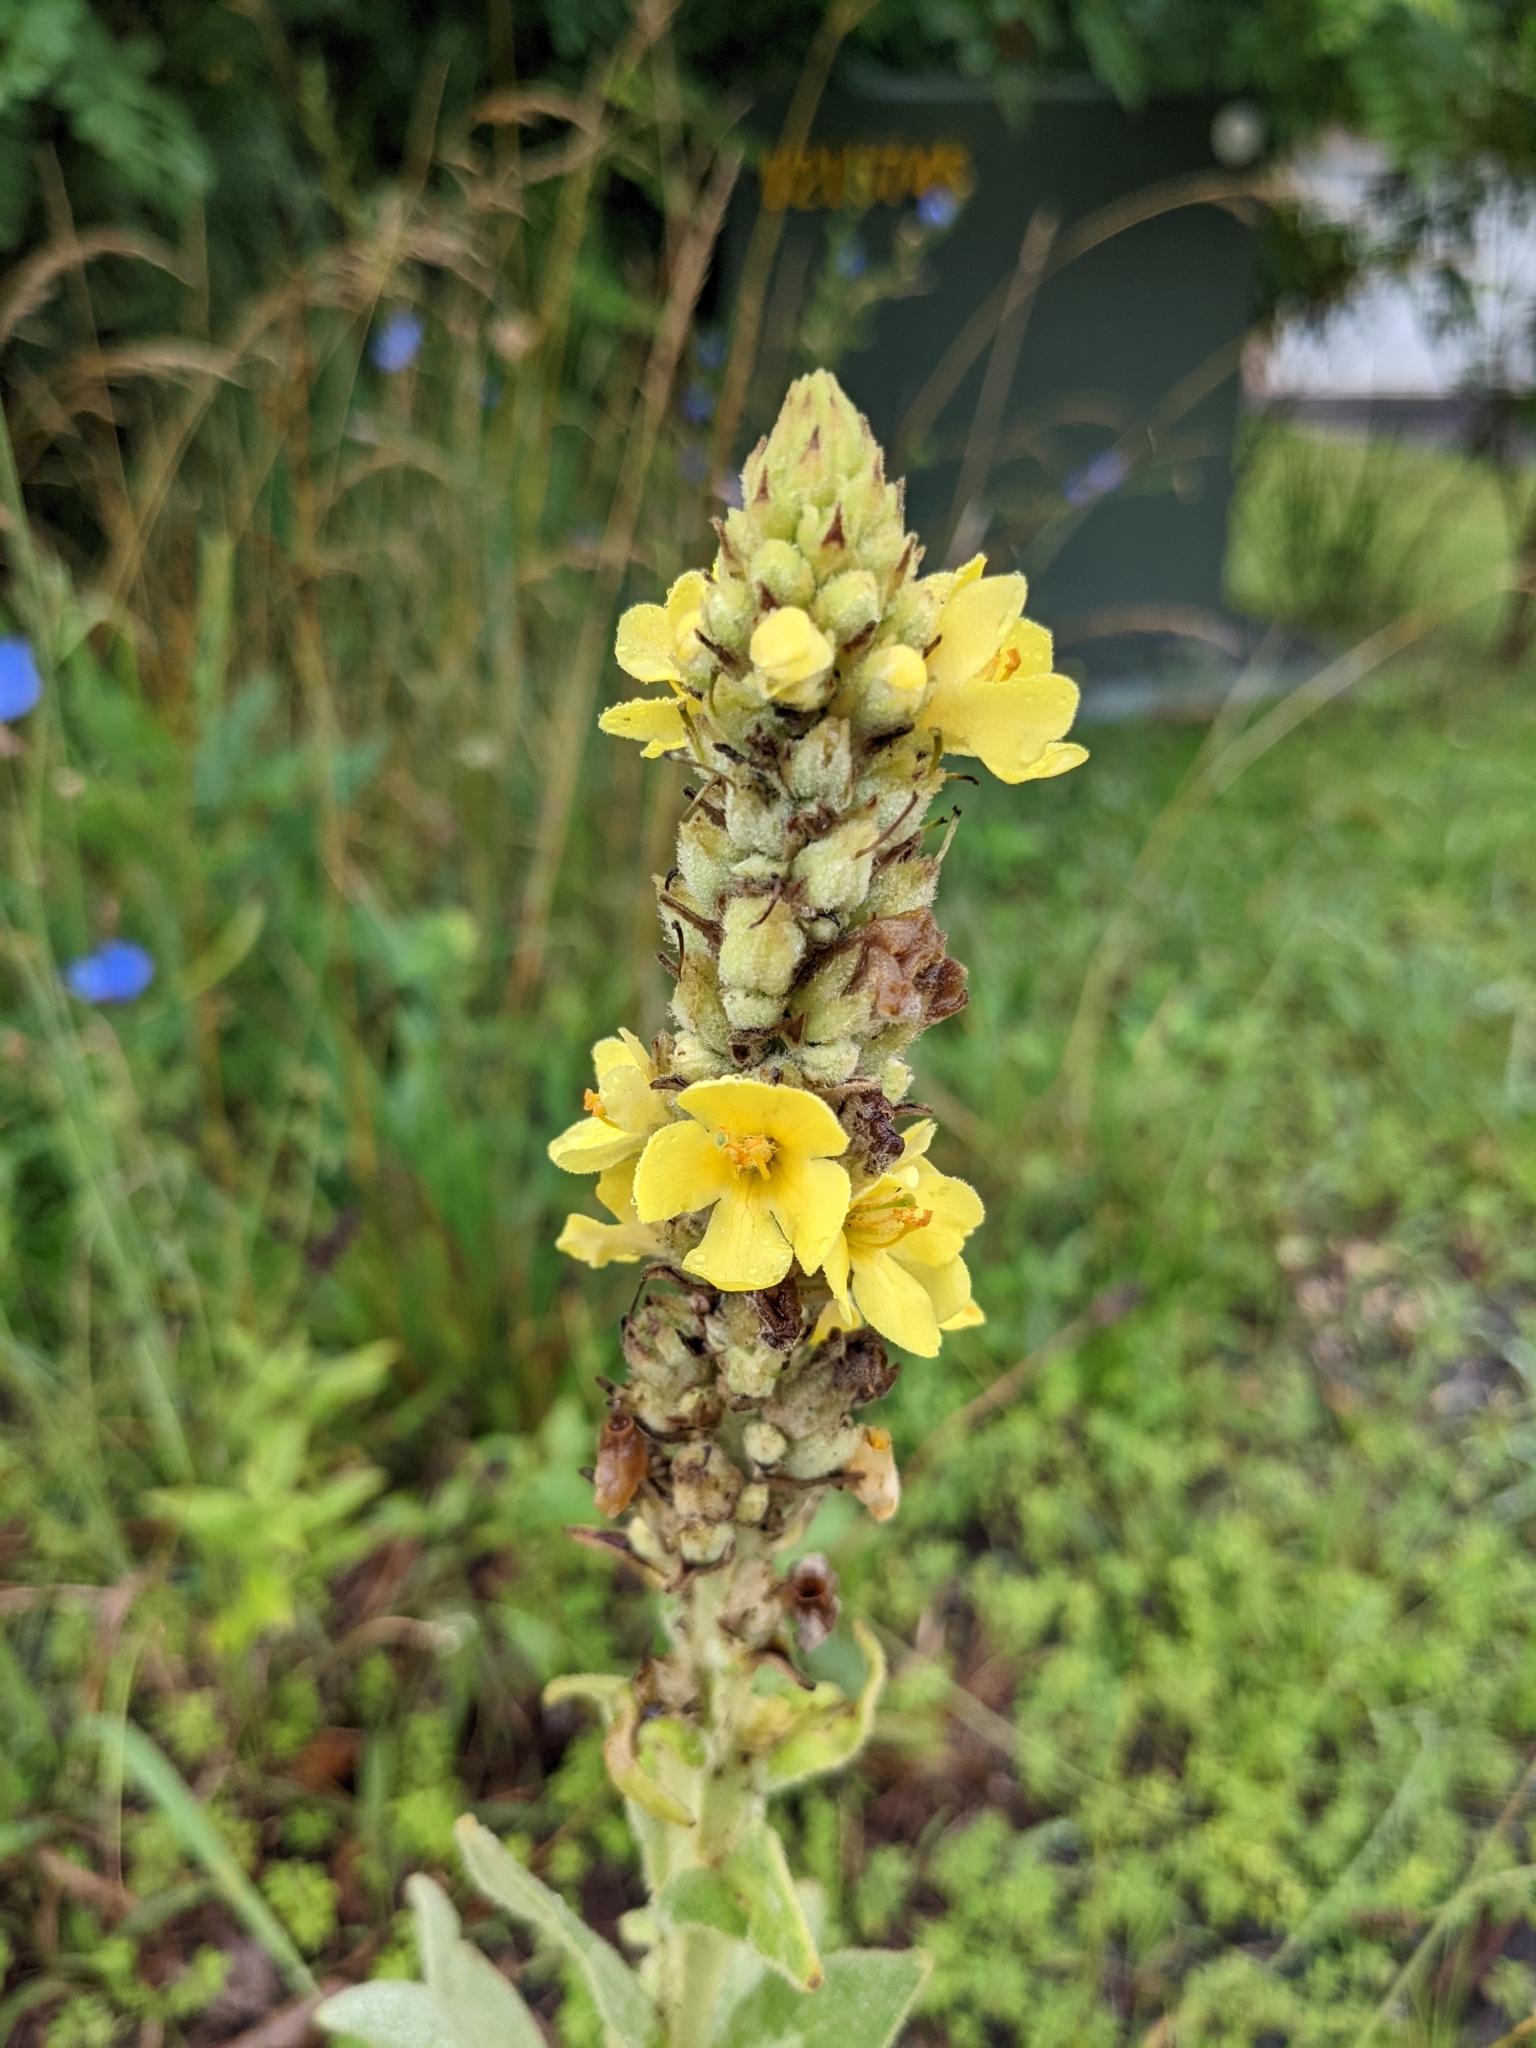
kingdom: Plantae
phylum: Tracheophyta
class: Magnoliopsida
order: Lamiales
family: Scrophulariaceae
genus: Verbascum
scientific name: Verbascum thapsus
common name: Common mullein
